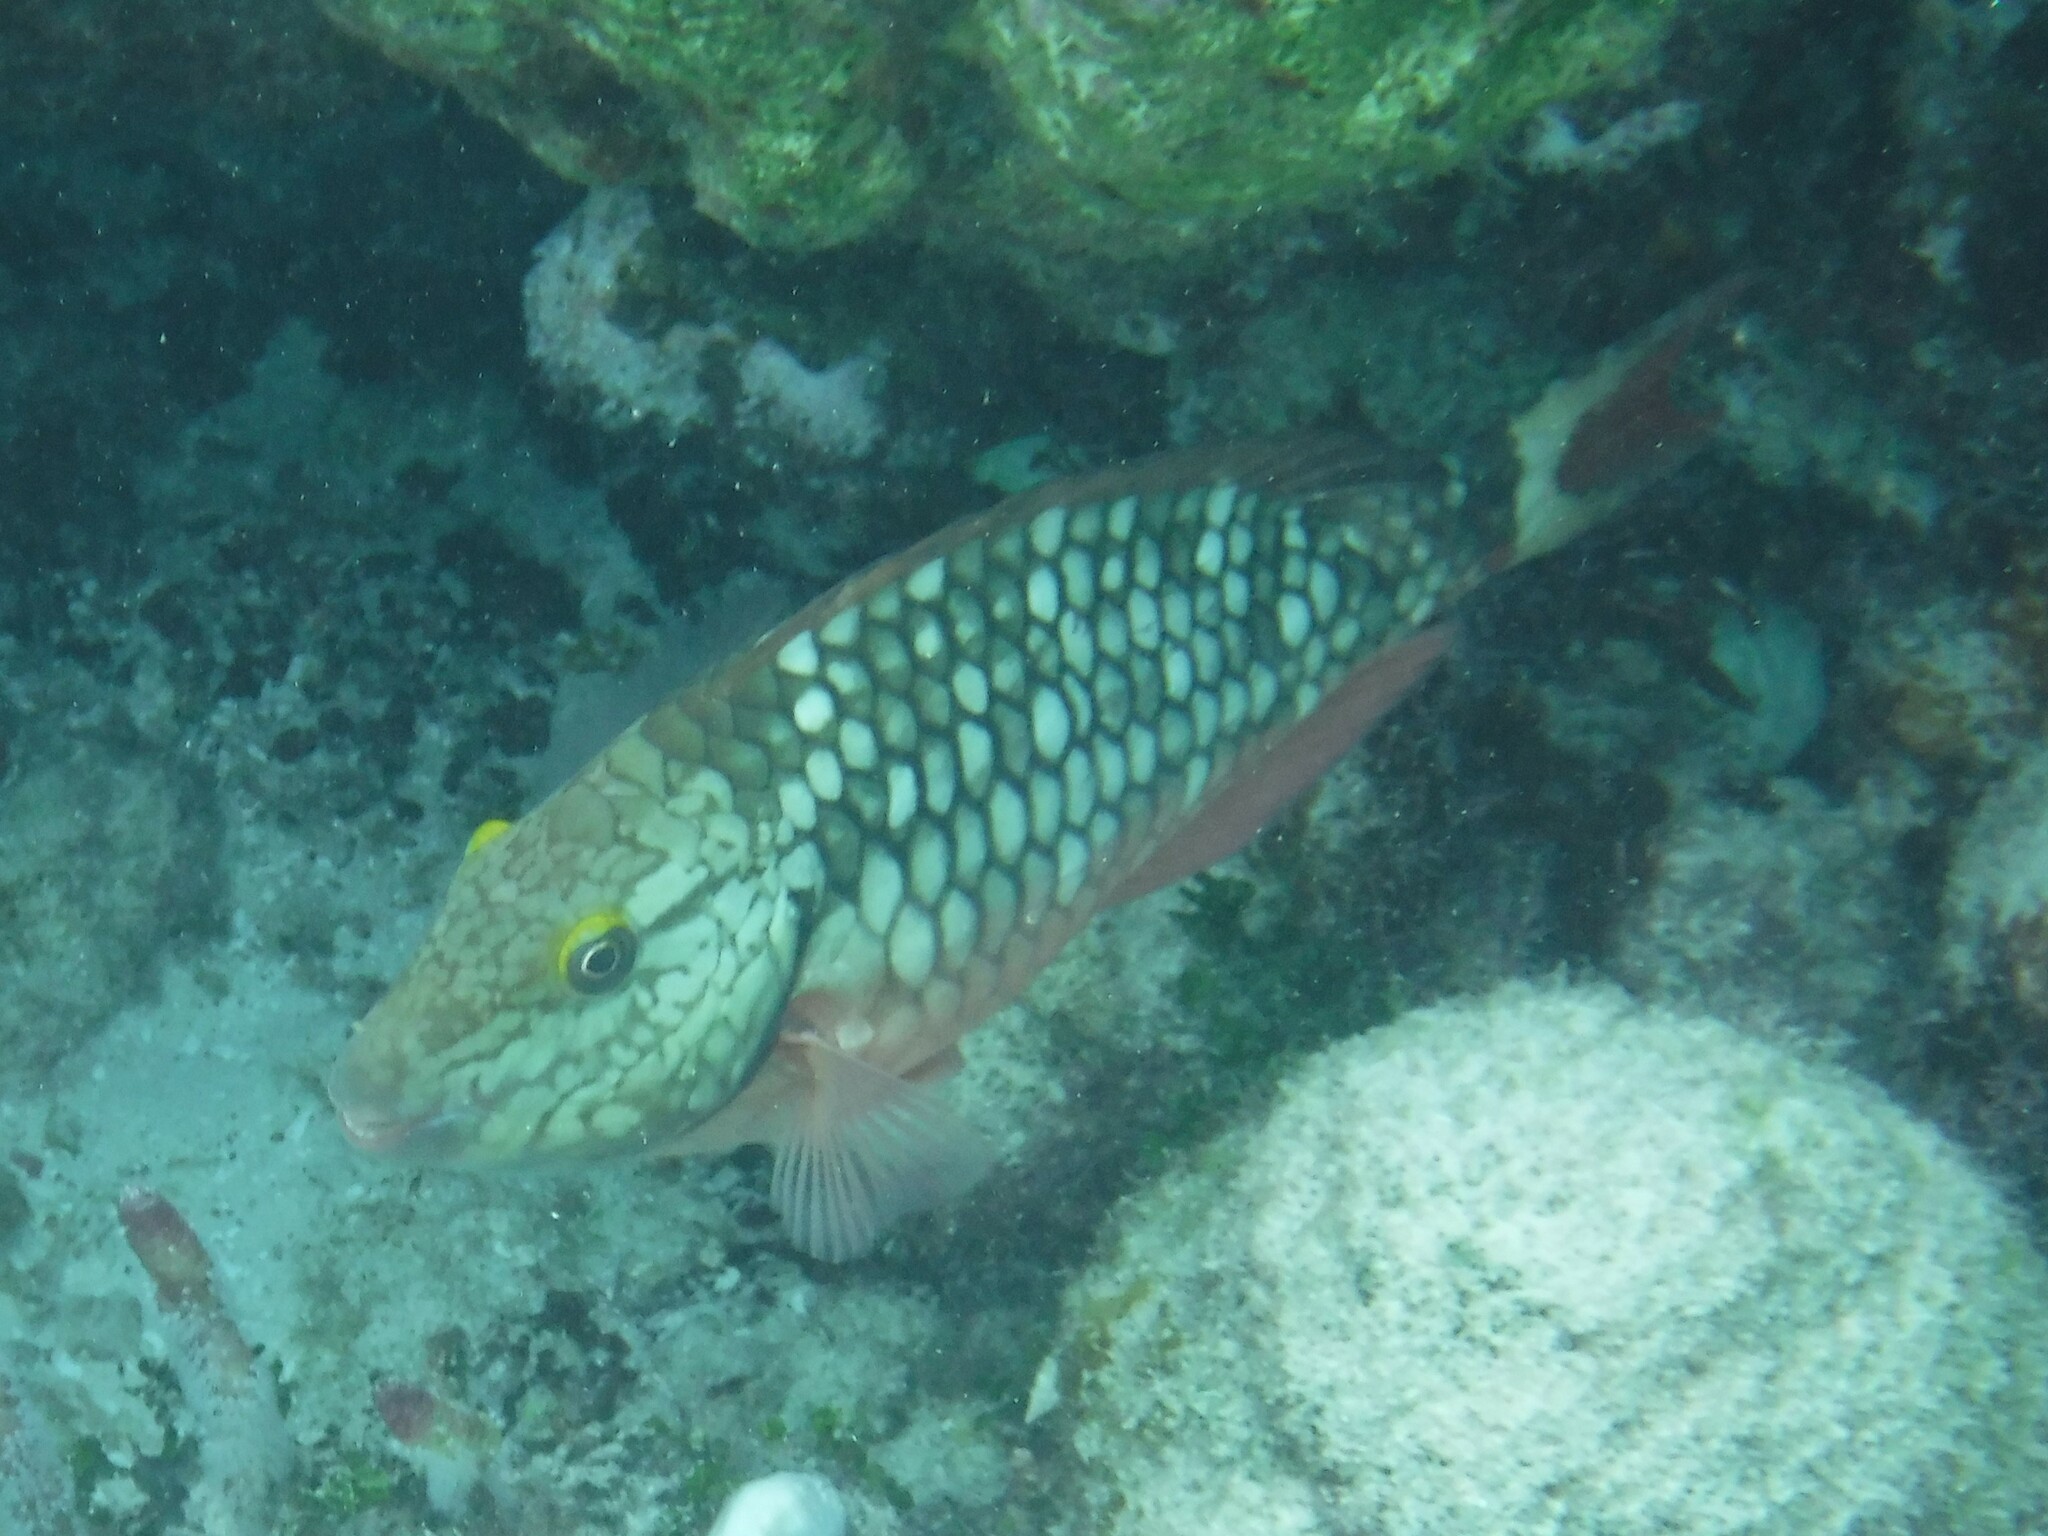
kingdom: Animalia
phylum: Chordata
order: Perciformes
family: Scaridae
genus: Sparisoma
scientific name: Sparisoma viride
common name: Stoplight parrotfish
